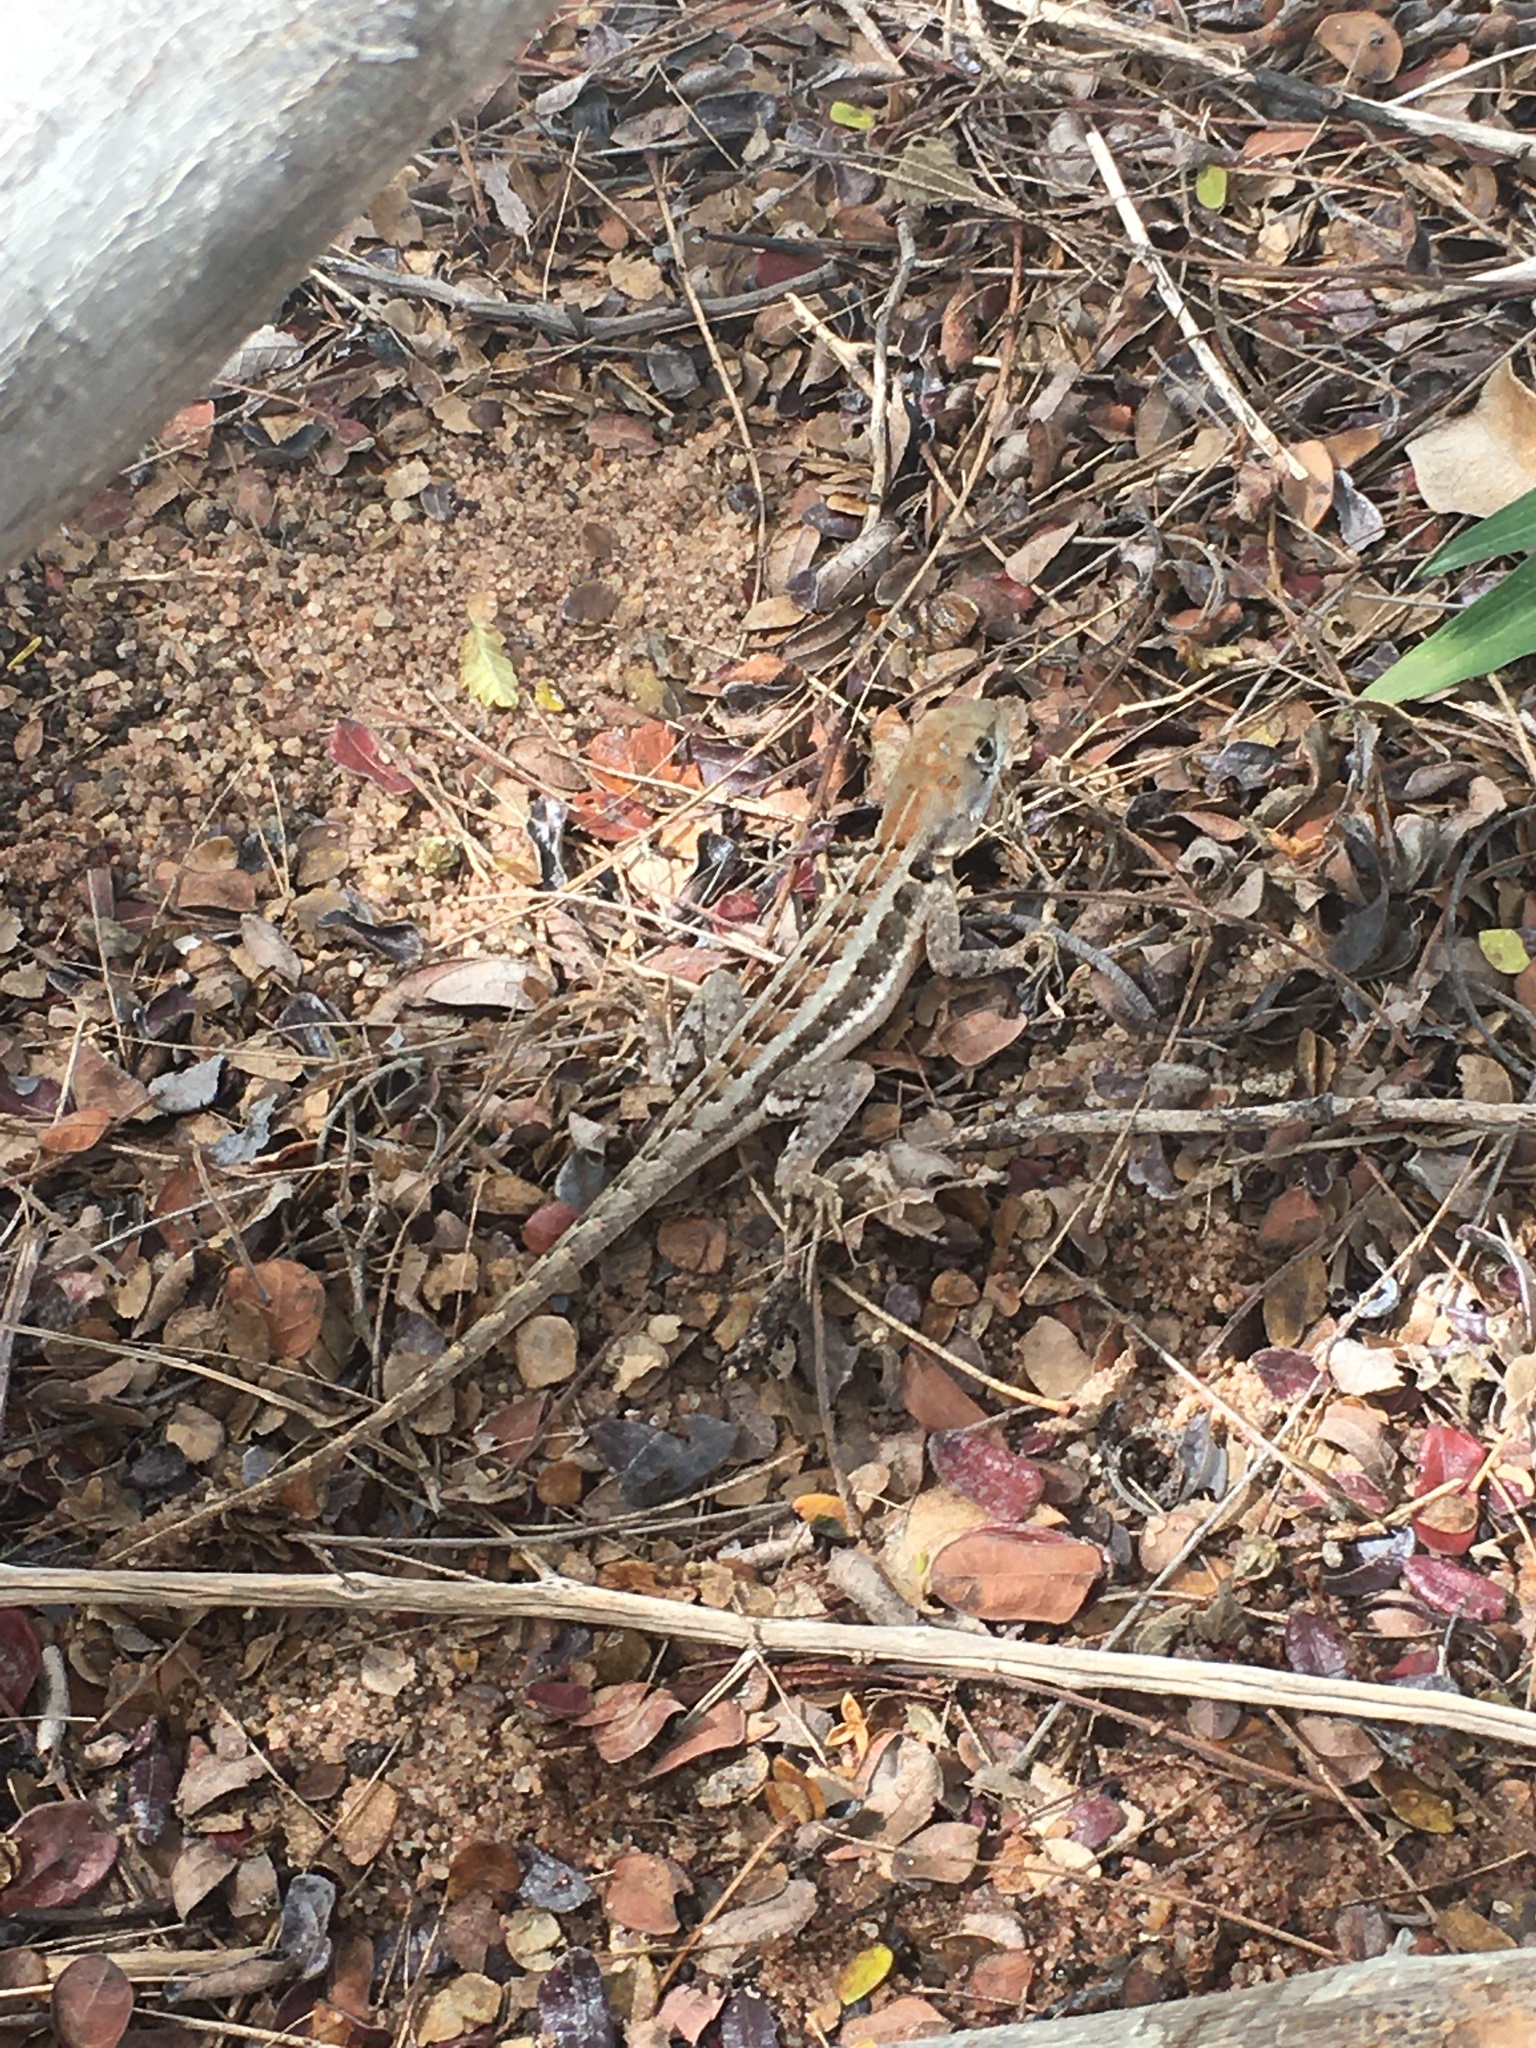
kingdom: Animalia
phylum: Chordata
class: Squamata
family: Tropiduridae
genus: Tropidurus
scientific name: Tropidurus cocorobensis
